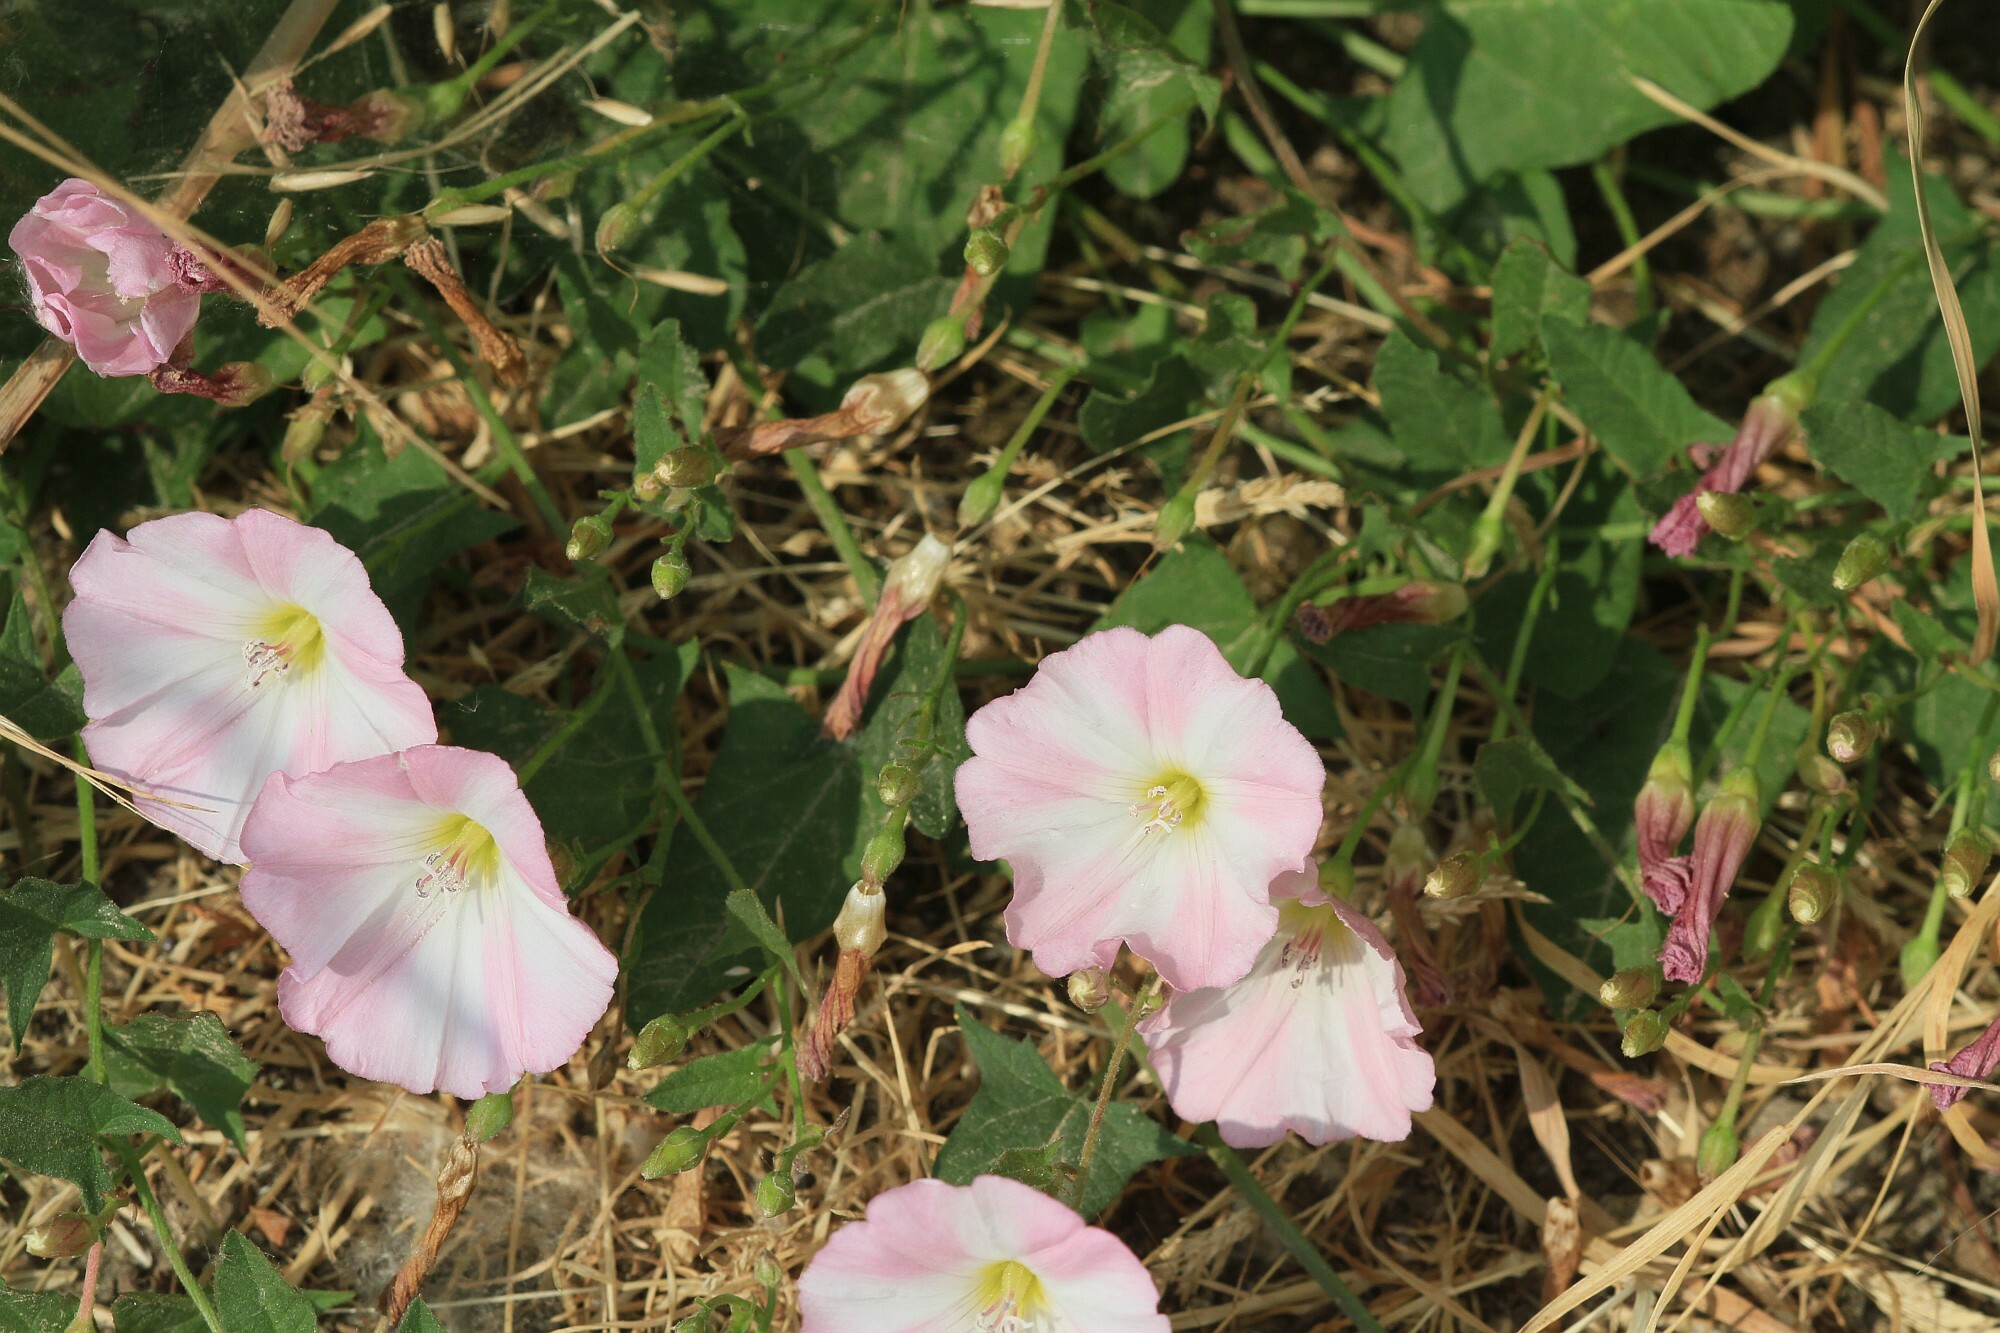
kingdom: Plantae
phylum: Tracheophyta
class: Magnoliopsida
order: Solanales
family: Convolvulaceae
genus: Convolvulus
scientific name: Convolvulus arvensis
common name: Field bindweed
